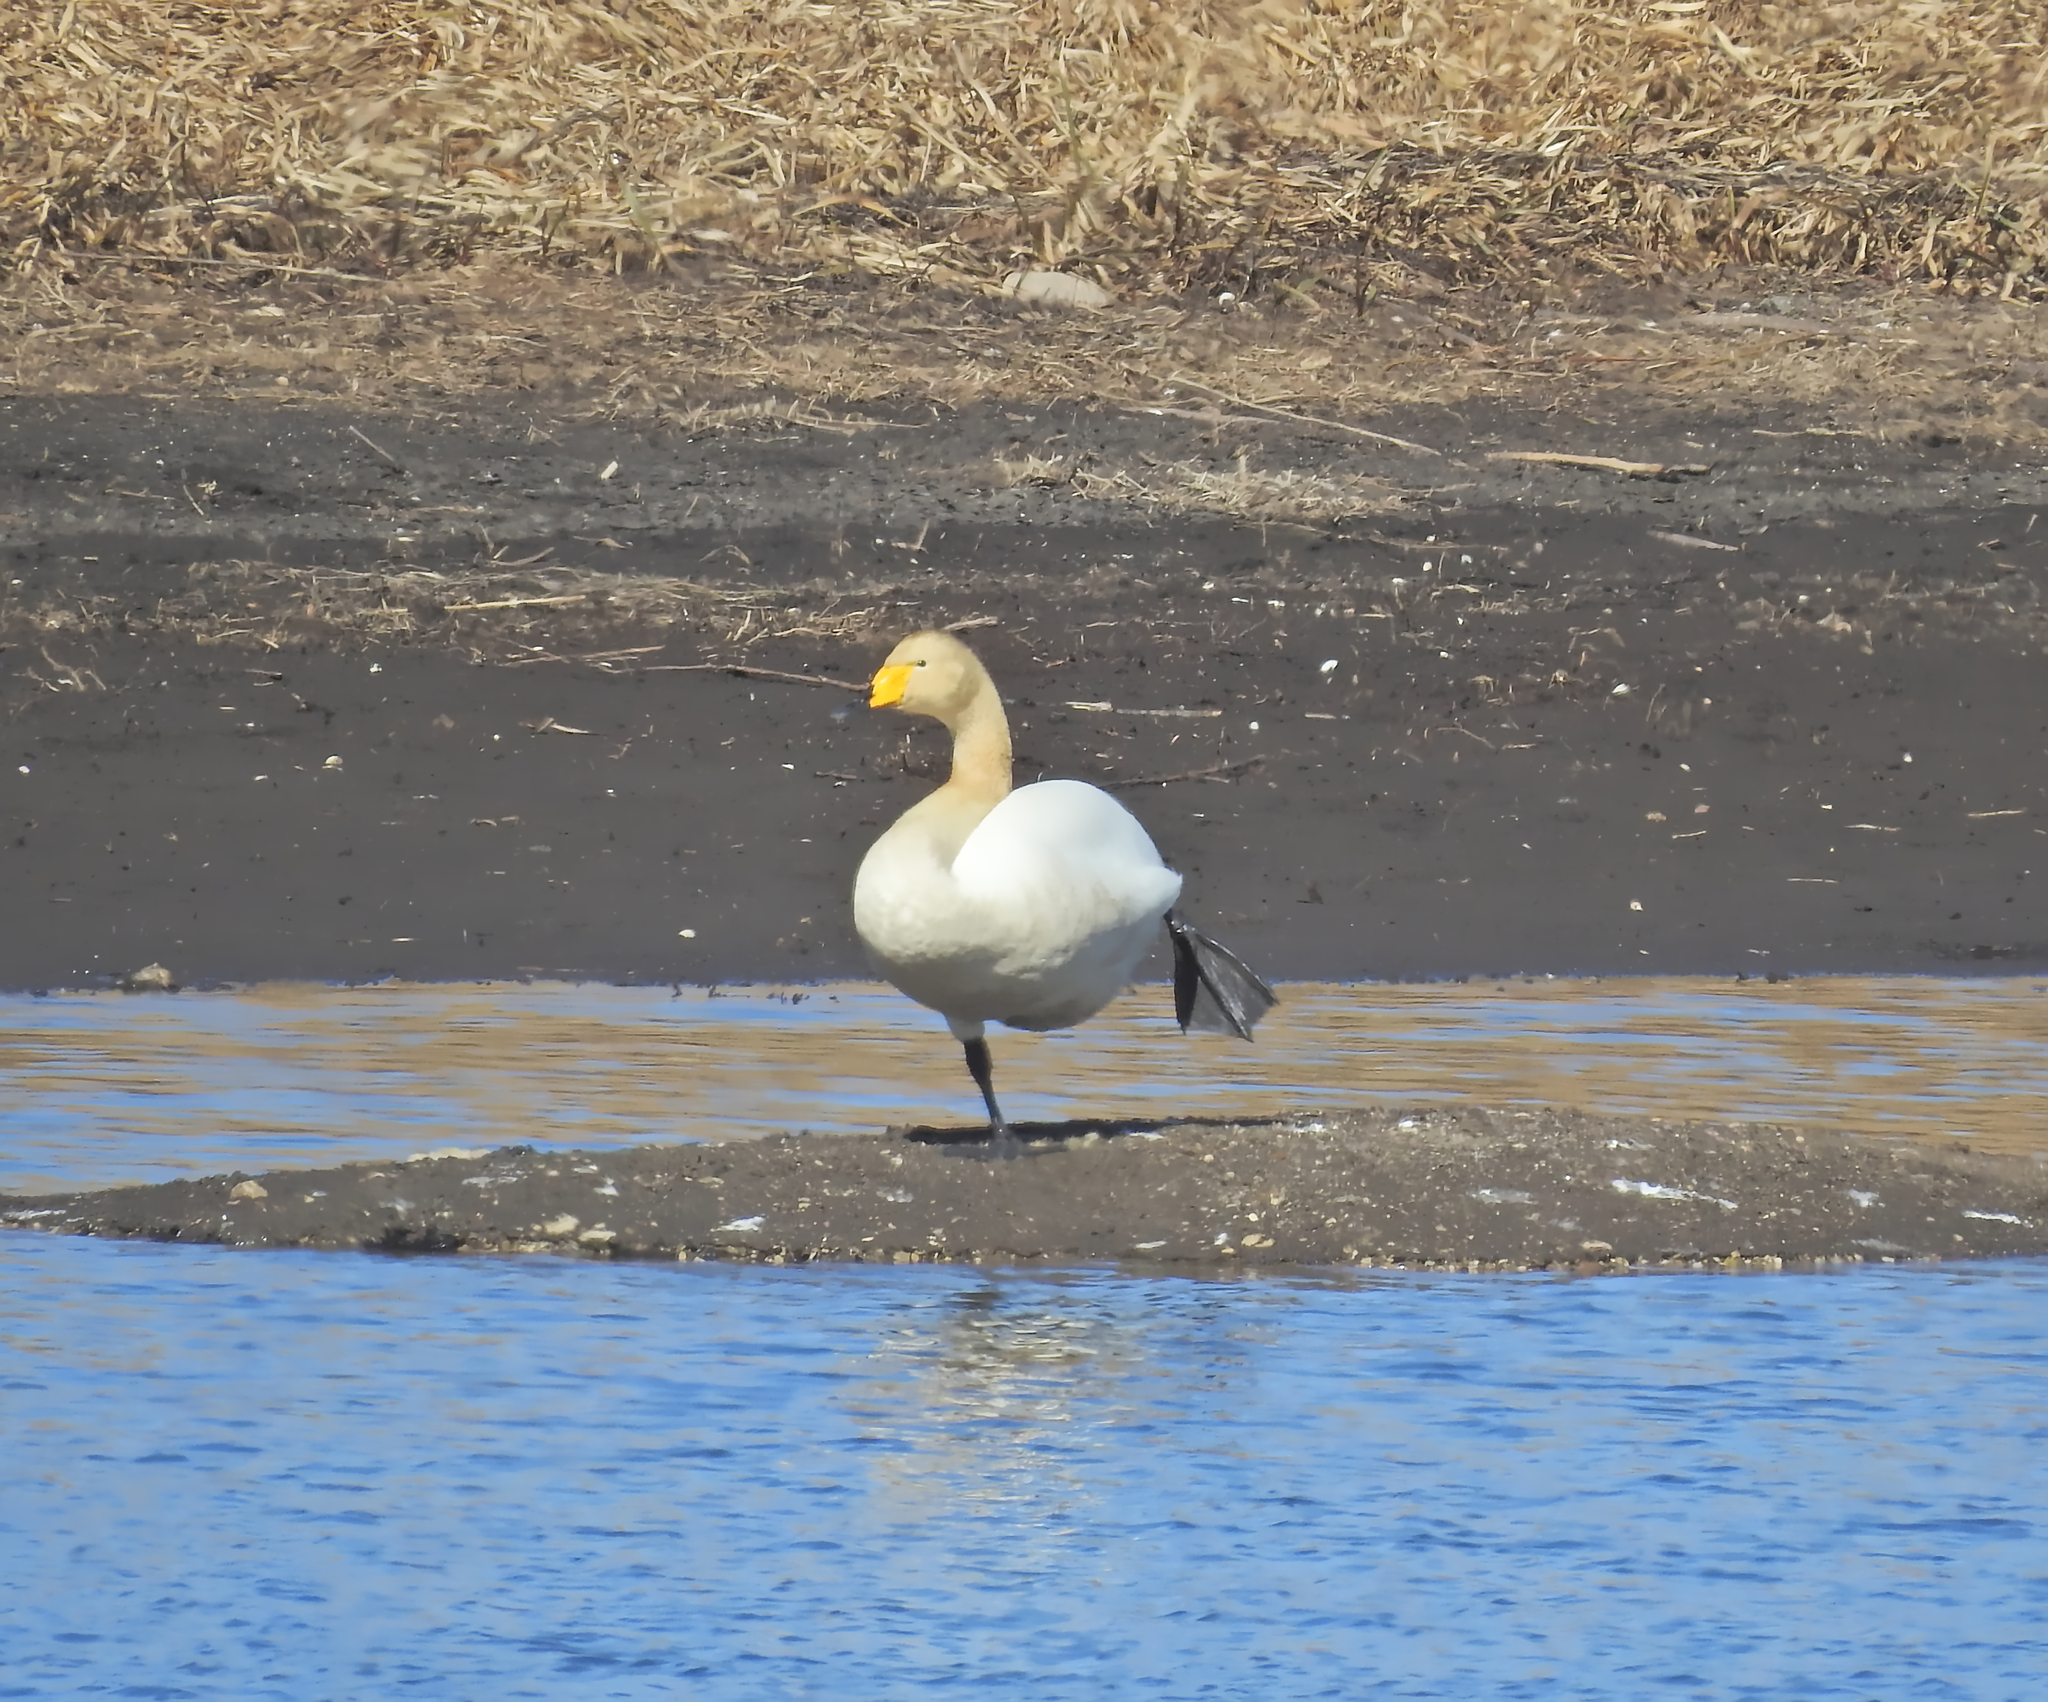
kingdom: Animalia
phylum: Chordata
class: Aves
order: Anseriformes
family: Anatidae
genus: Cygnus
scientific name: Cygnus cygnus
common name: Whooper swan
